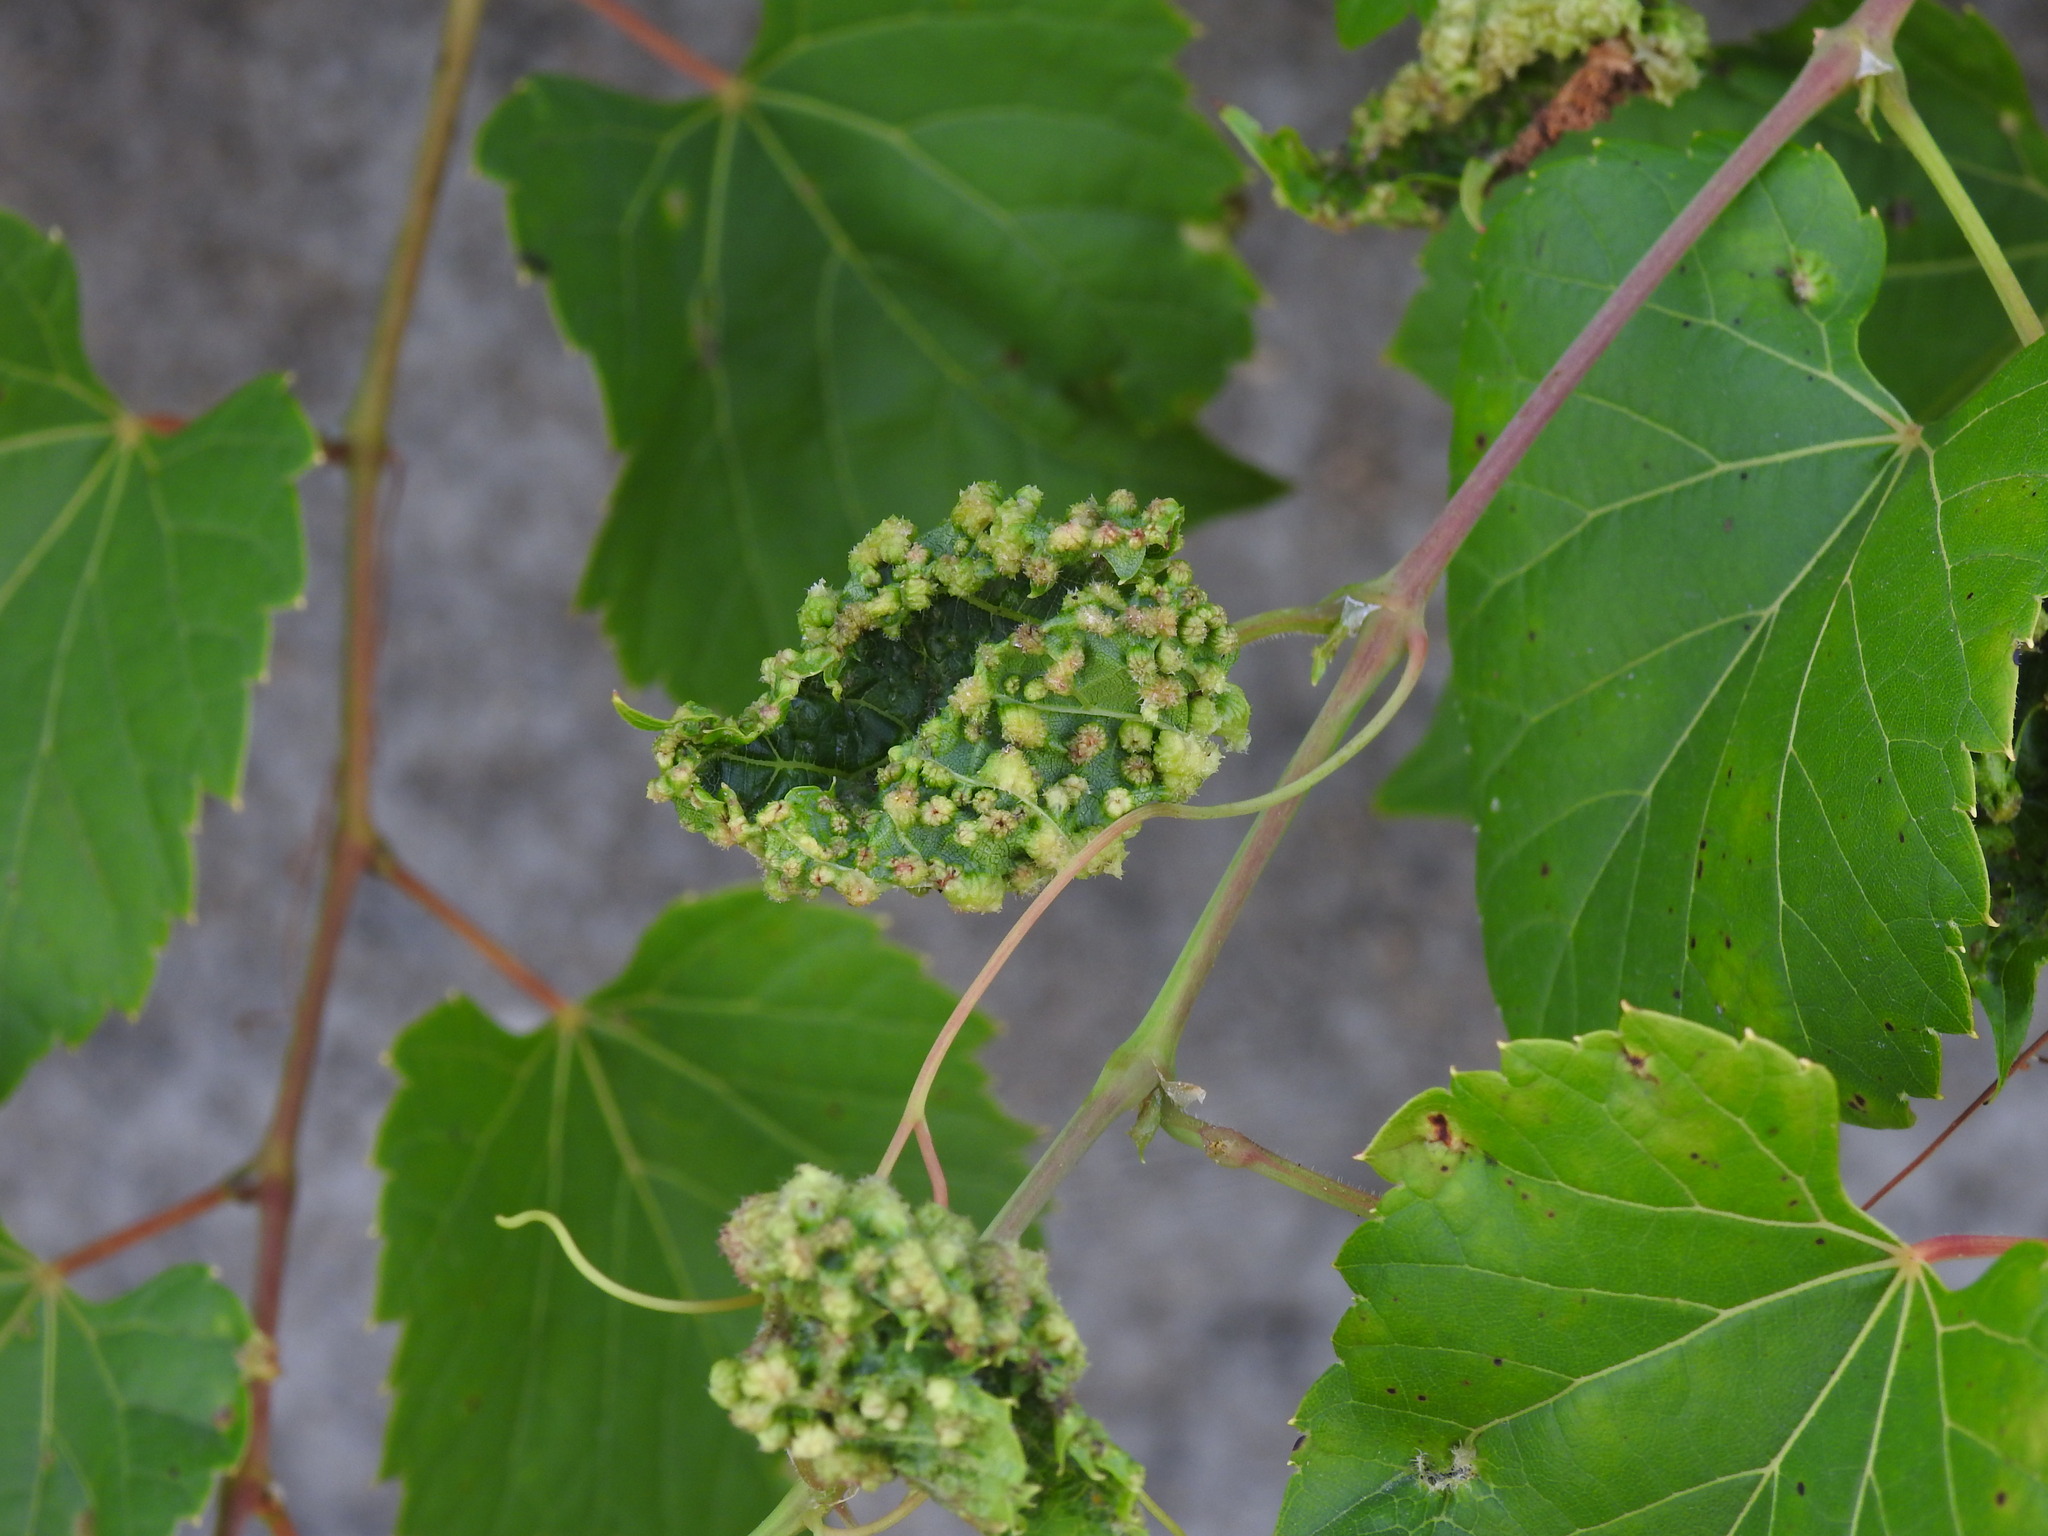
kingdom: Animalia
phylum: Arthropoda
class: Insecta
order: Hemiptera
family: Phylloxeridae
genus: Daktulosphaira
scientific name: Daktulosphaira vitifoliae
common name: Grape phylloxera
